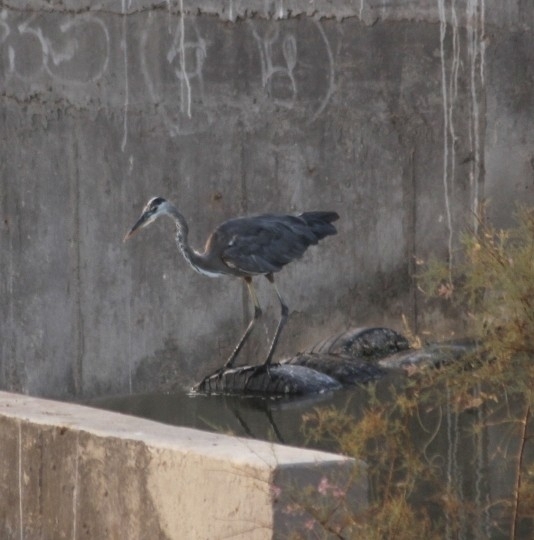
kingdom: Animalia
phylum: Chordata
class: Aves
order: Pelecaniformes
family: Ardeidae
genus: Ardea
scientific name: Ardea herodias
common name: Great blue heron
